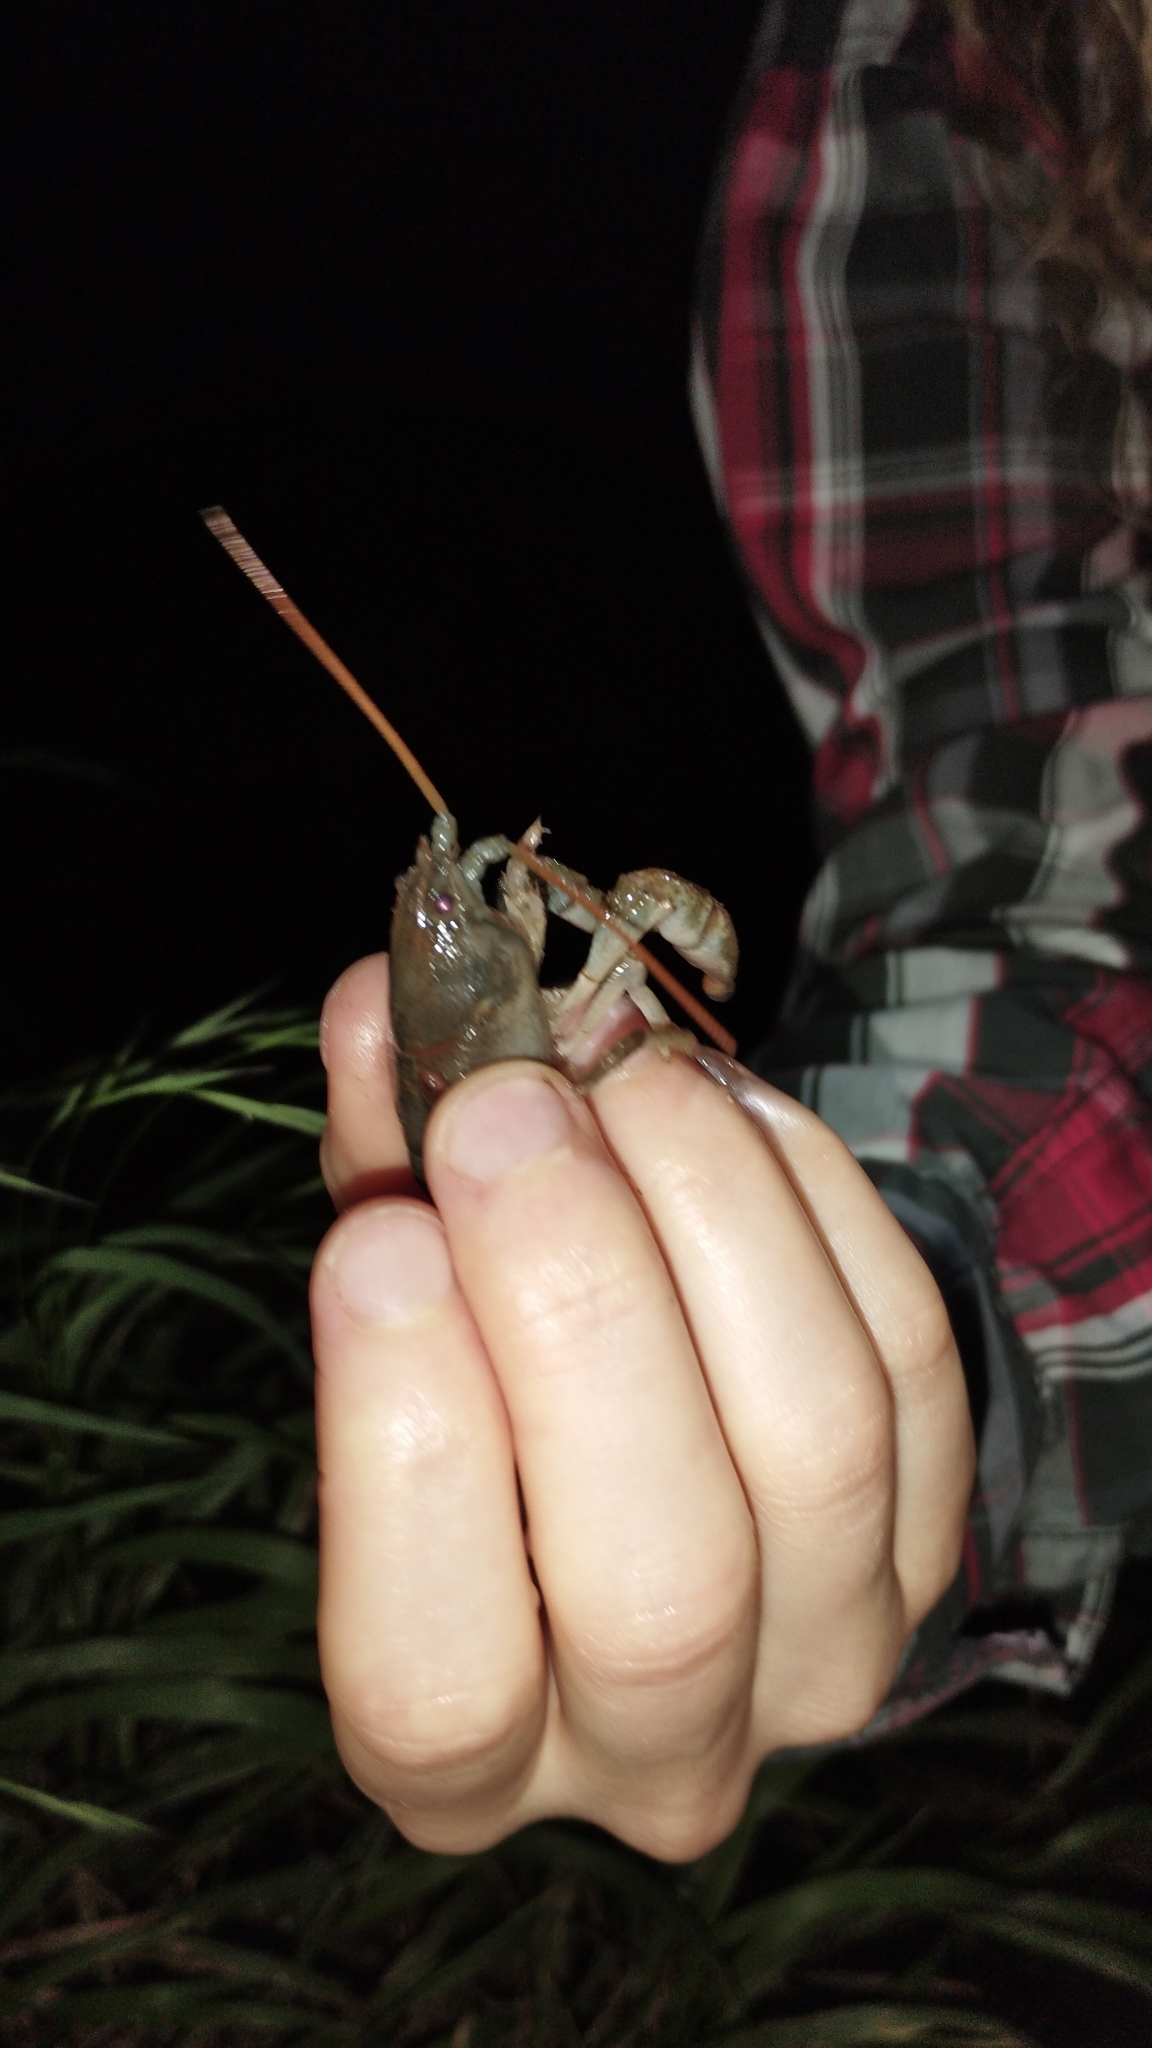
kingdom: Animalia
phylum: Arthropoda
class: Malacostraca
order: Decapoda
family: Astacidae
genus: Austropotamobius
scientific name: Austropotamobius torrentium
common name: Stone crayfish
